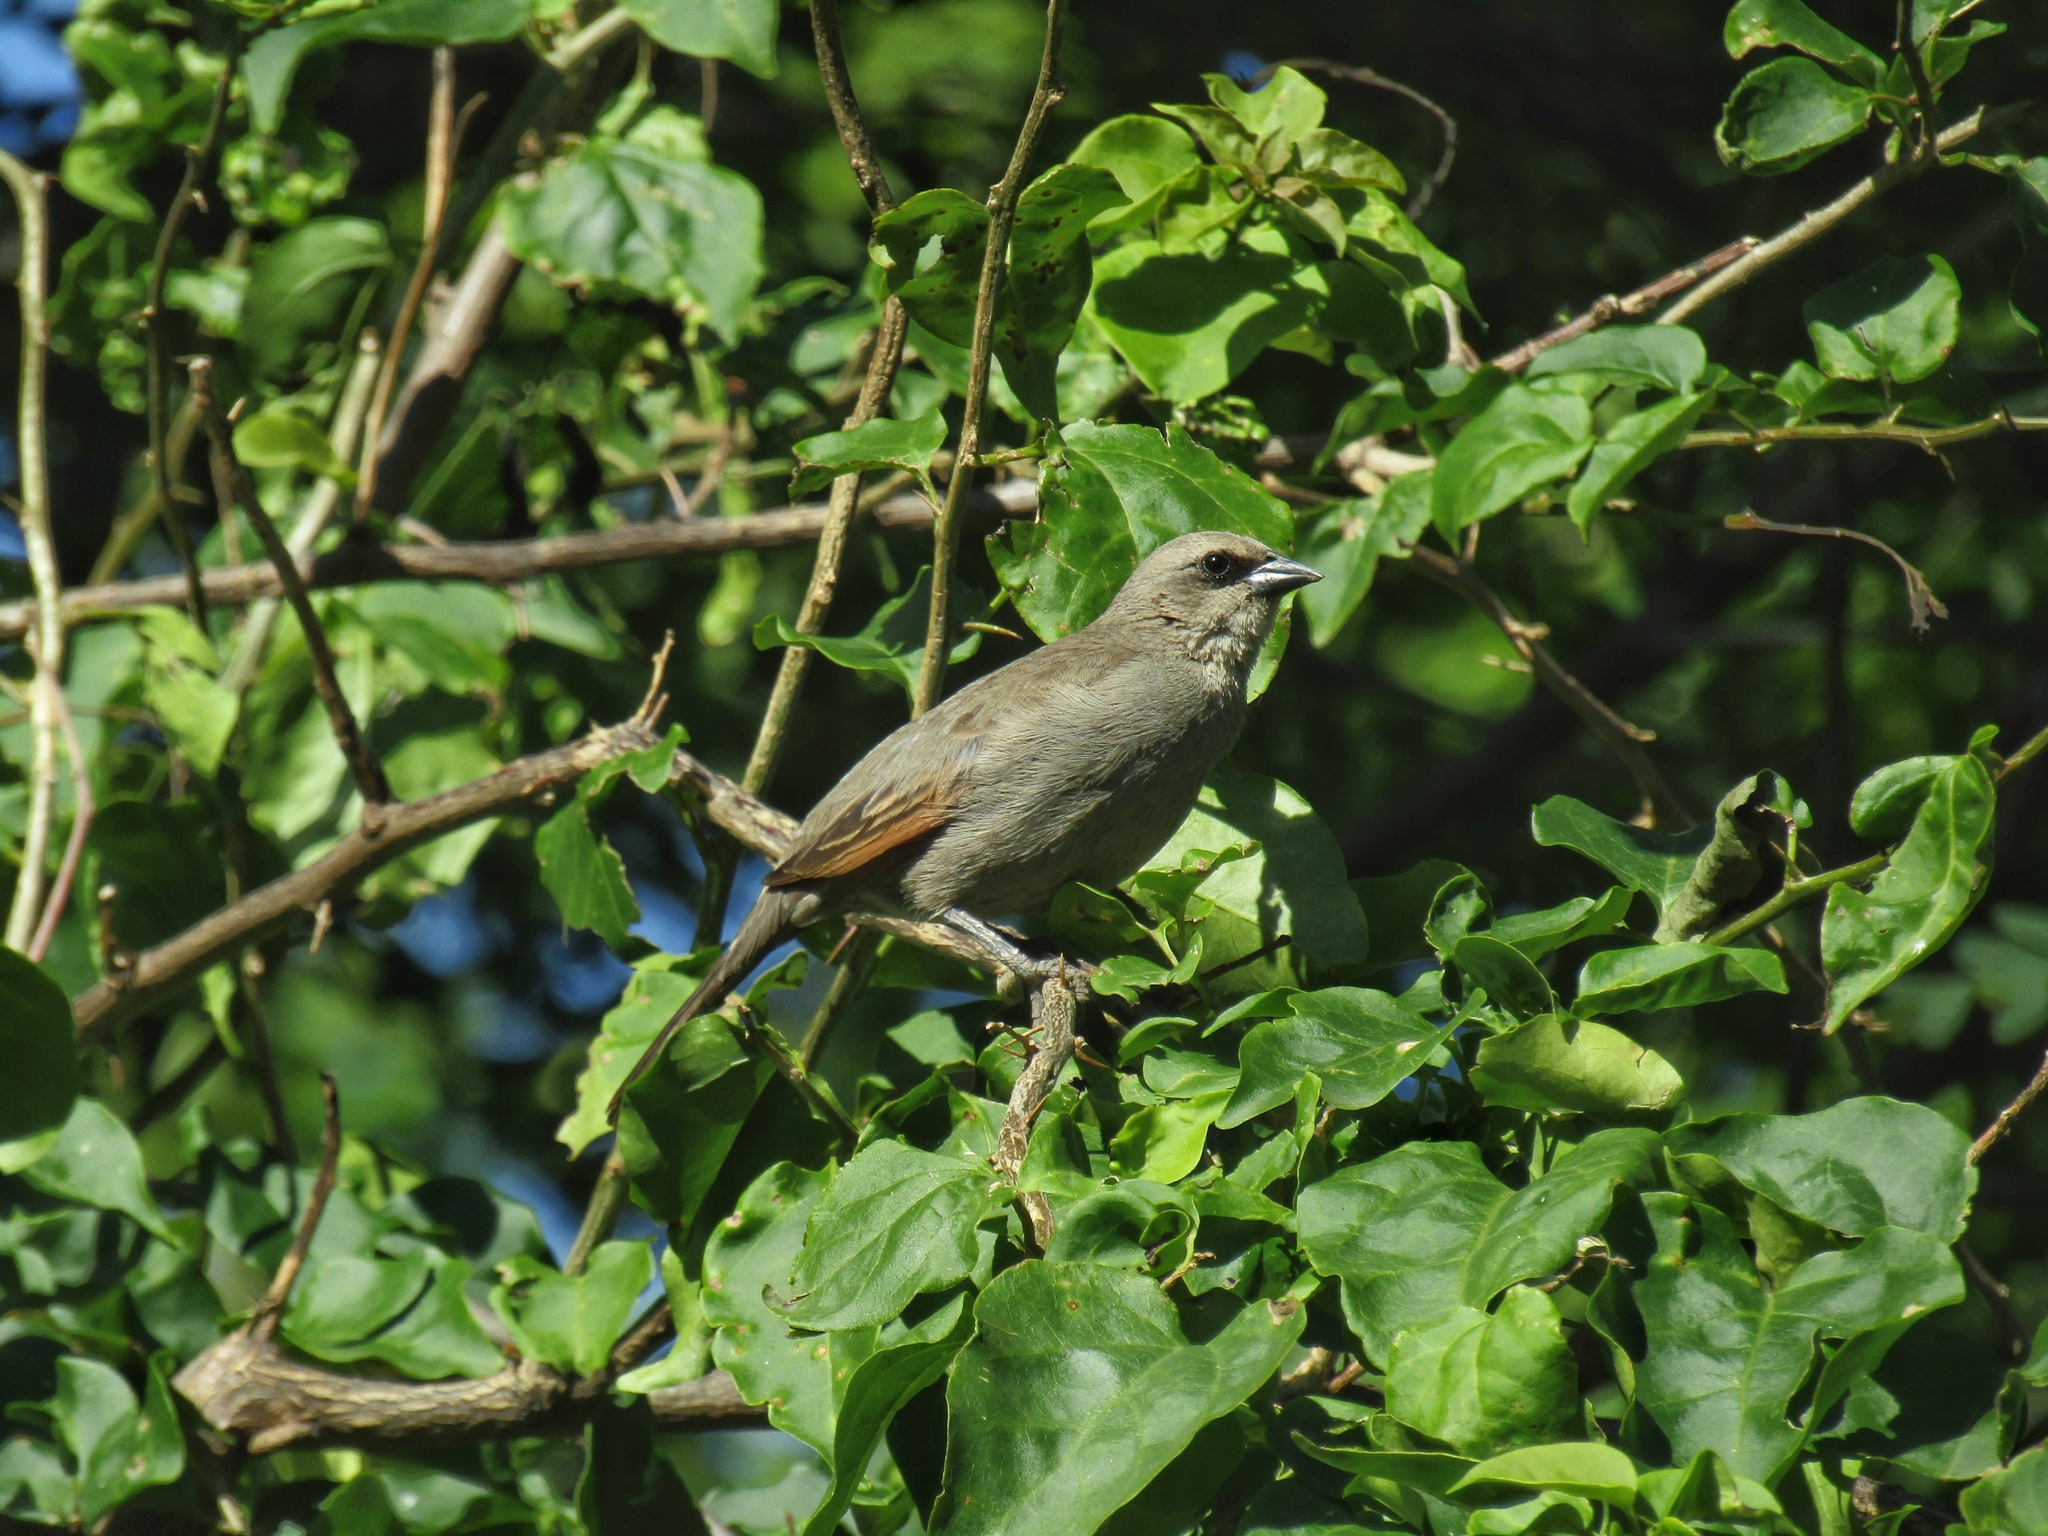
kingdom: Animalia
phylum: Chordata
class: Aves
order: Passeriformes
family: Icteridae
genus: Agelaioides
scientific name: Agelaioides badius
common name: Baywing
